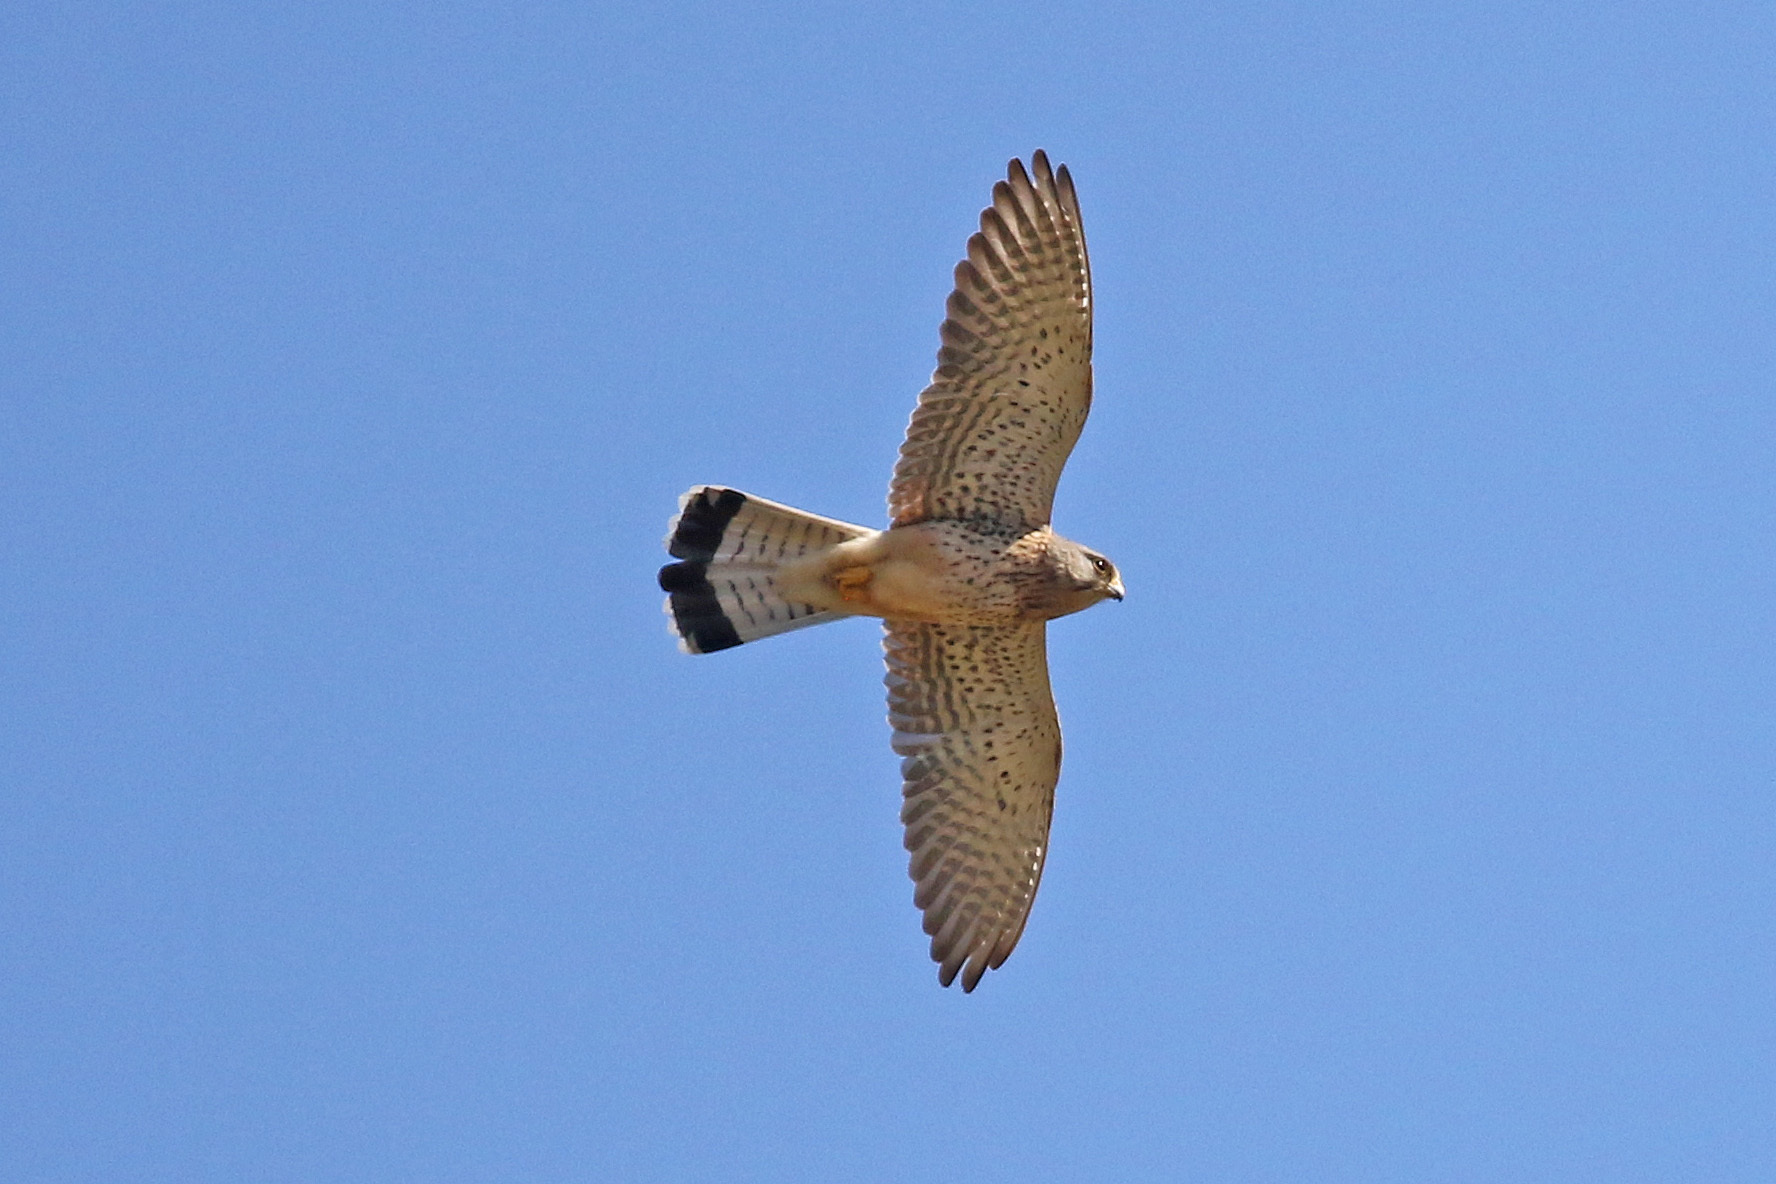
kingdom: Animalia
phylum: Chordata
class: Aves
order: Falconiformes
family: Falconidae
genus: Falco
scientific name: Falco tinnunculus
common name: Common kestrel
